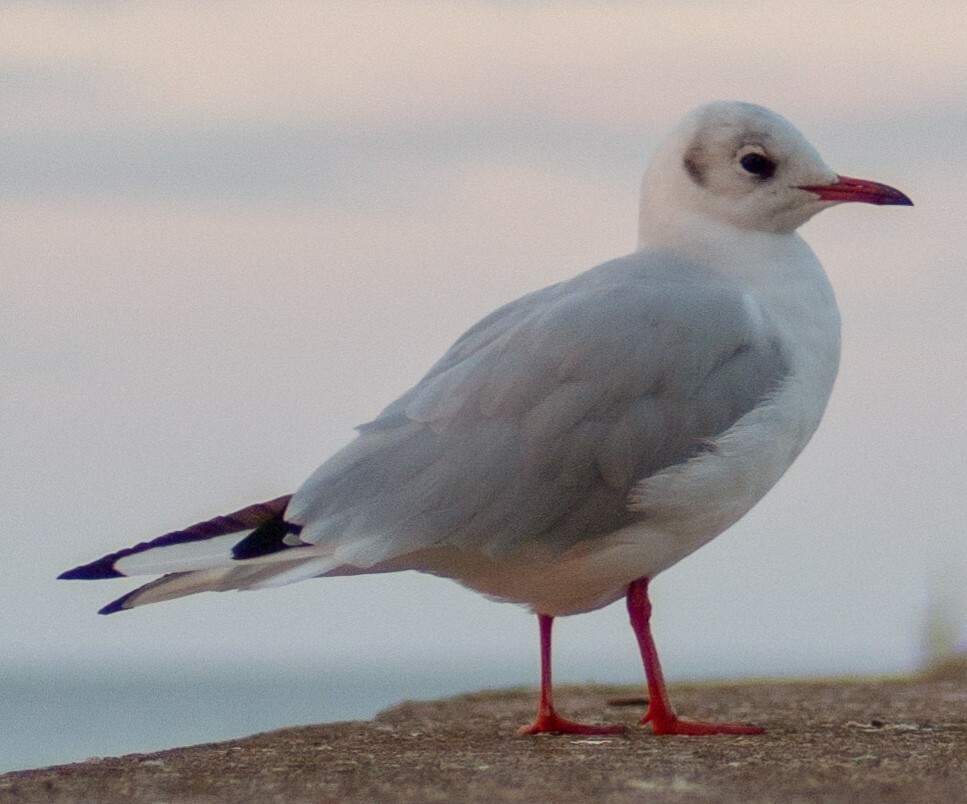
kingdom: Animalia
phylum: Chordata
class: Aves
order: Charadriiformes
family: Laridae
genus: Chroicocephalus
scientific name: Chroicocephalus ridibundus
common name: Black-headed gull
